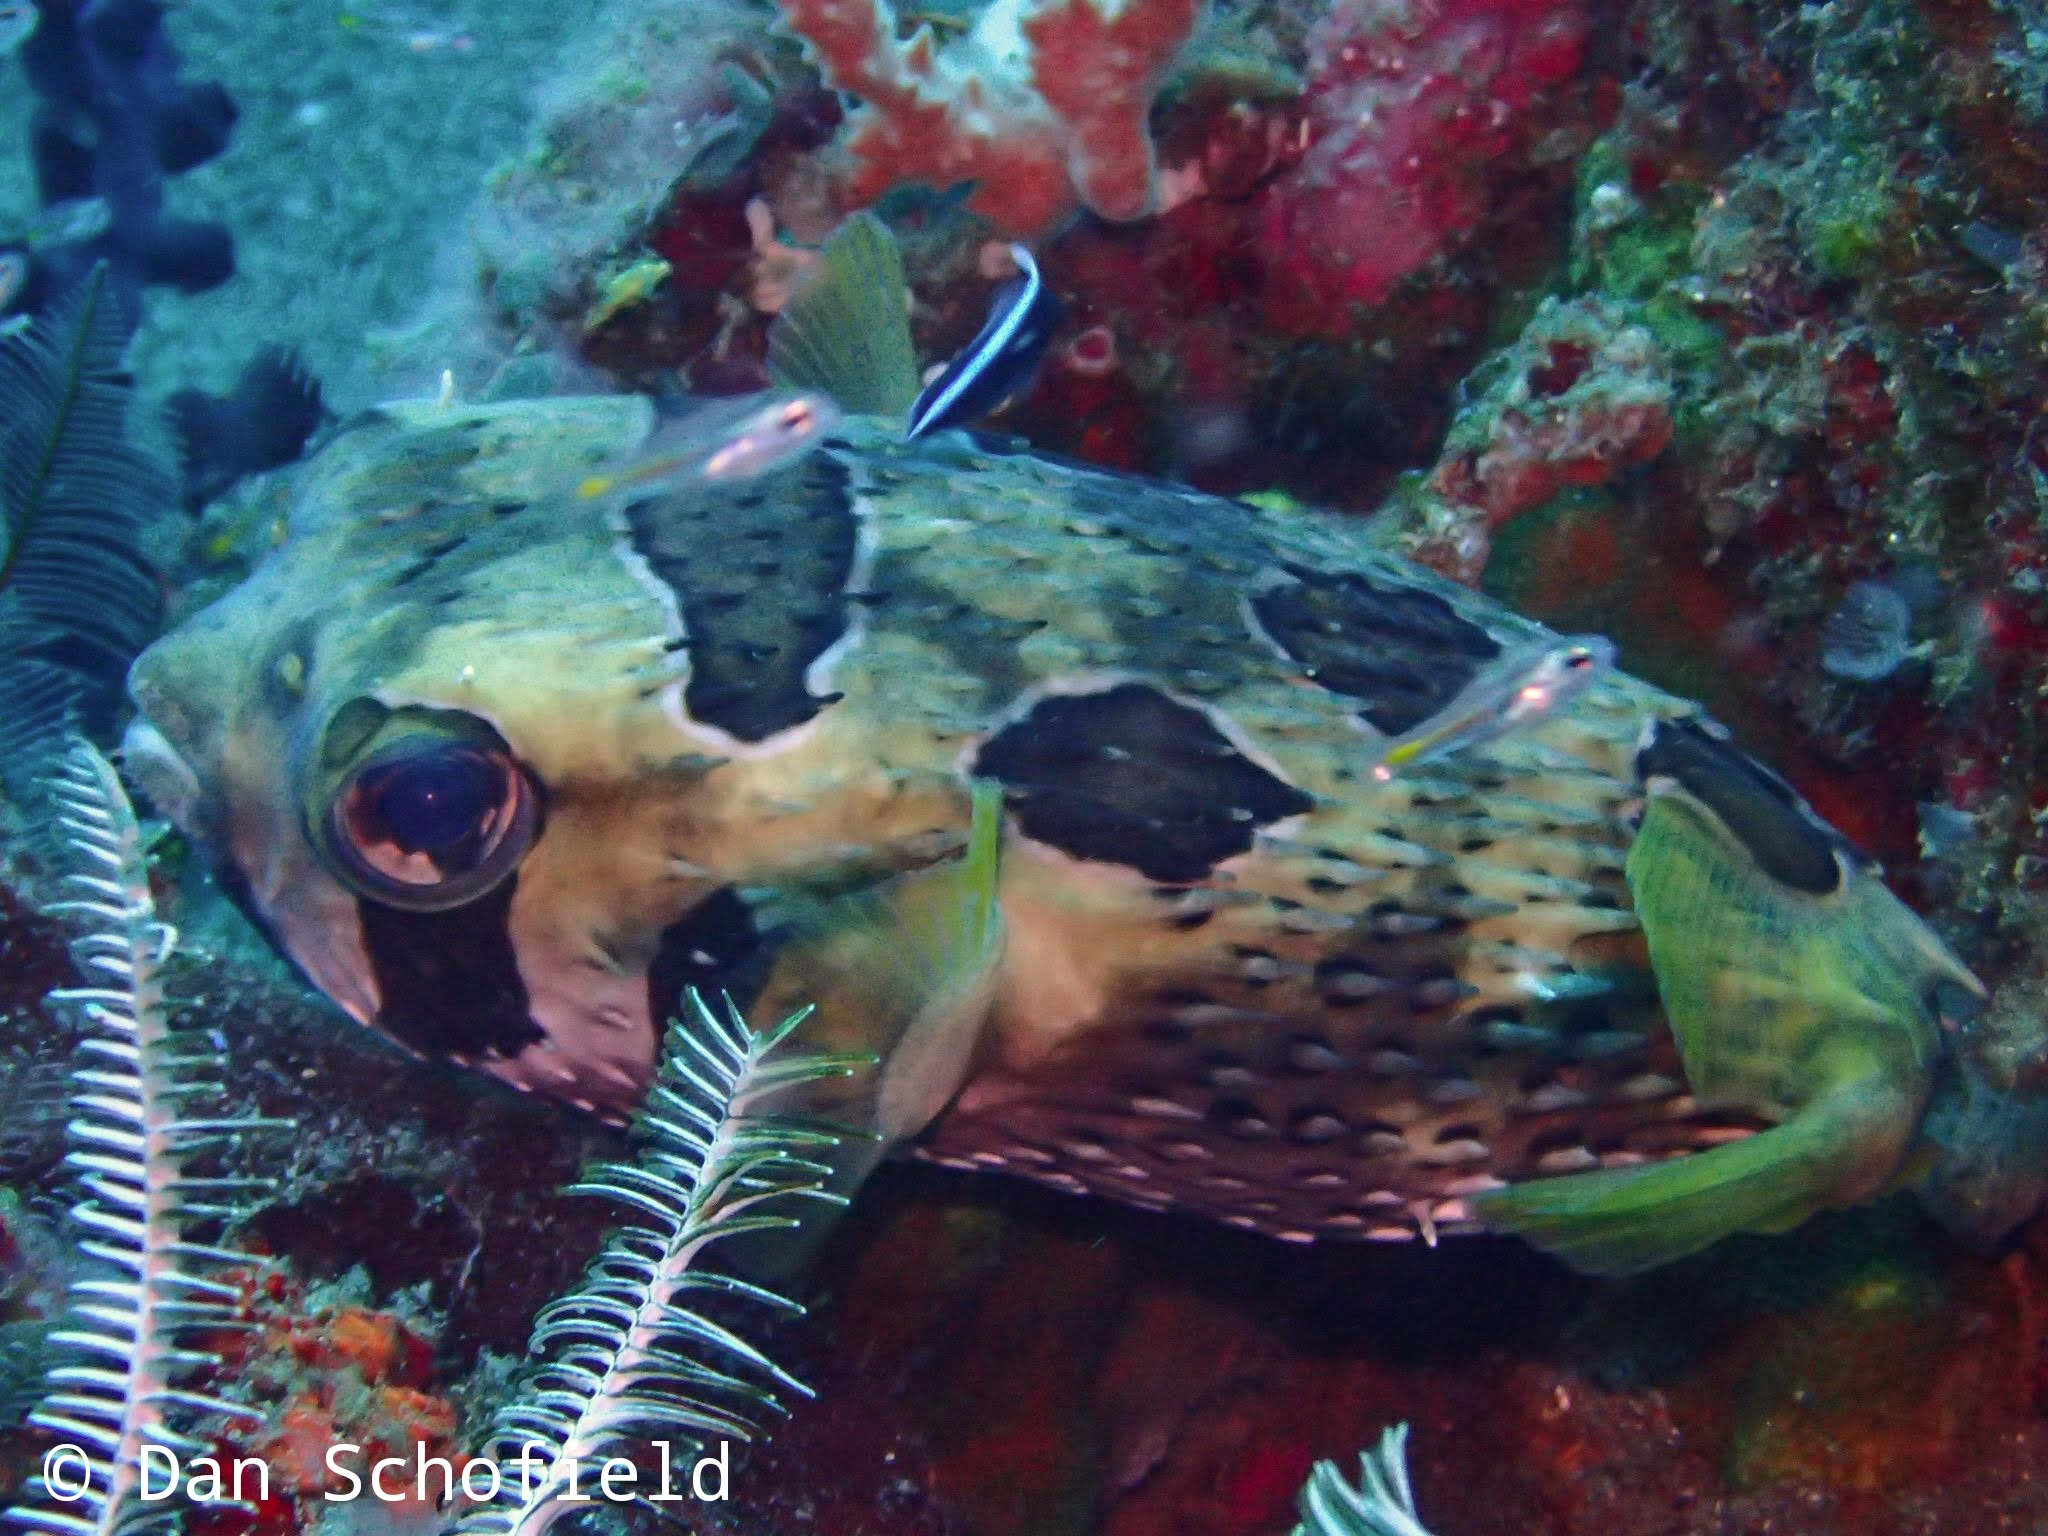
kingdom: Animalia
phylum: Chordata
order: Tetraodontiformes
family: Diodontidae
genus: Diodon
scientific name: Diodon liturosus
